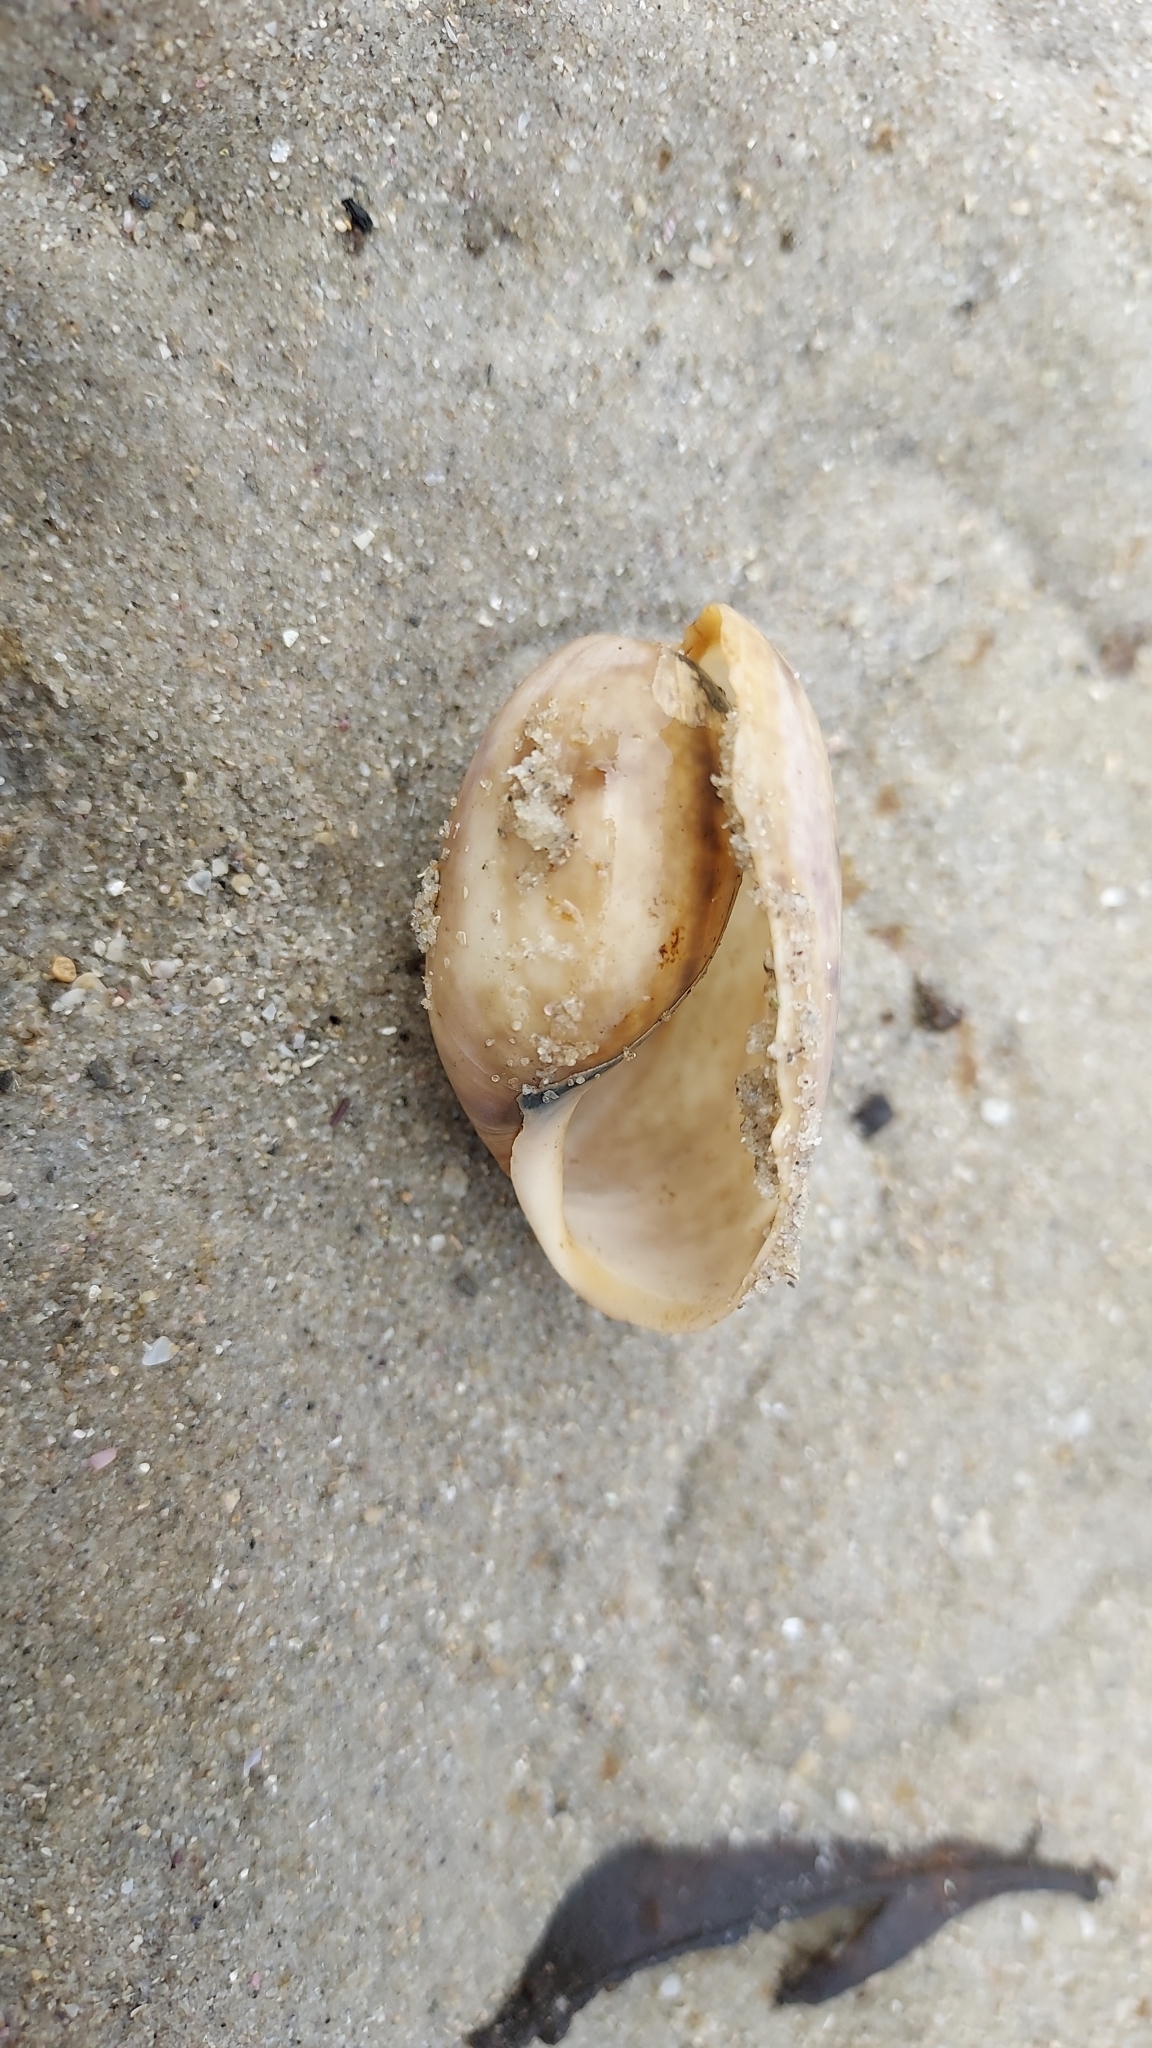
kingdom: Animalia
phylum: Mollusca
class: Gastropoda
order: Cephalaspidea
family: Bullidae
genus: Bulla
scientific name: Bulla quoyii
